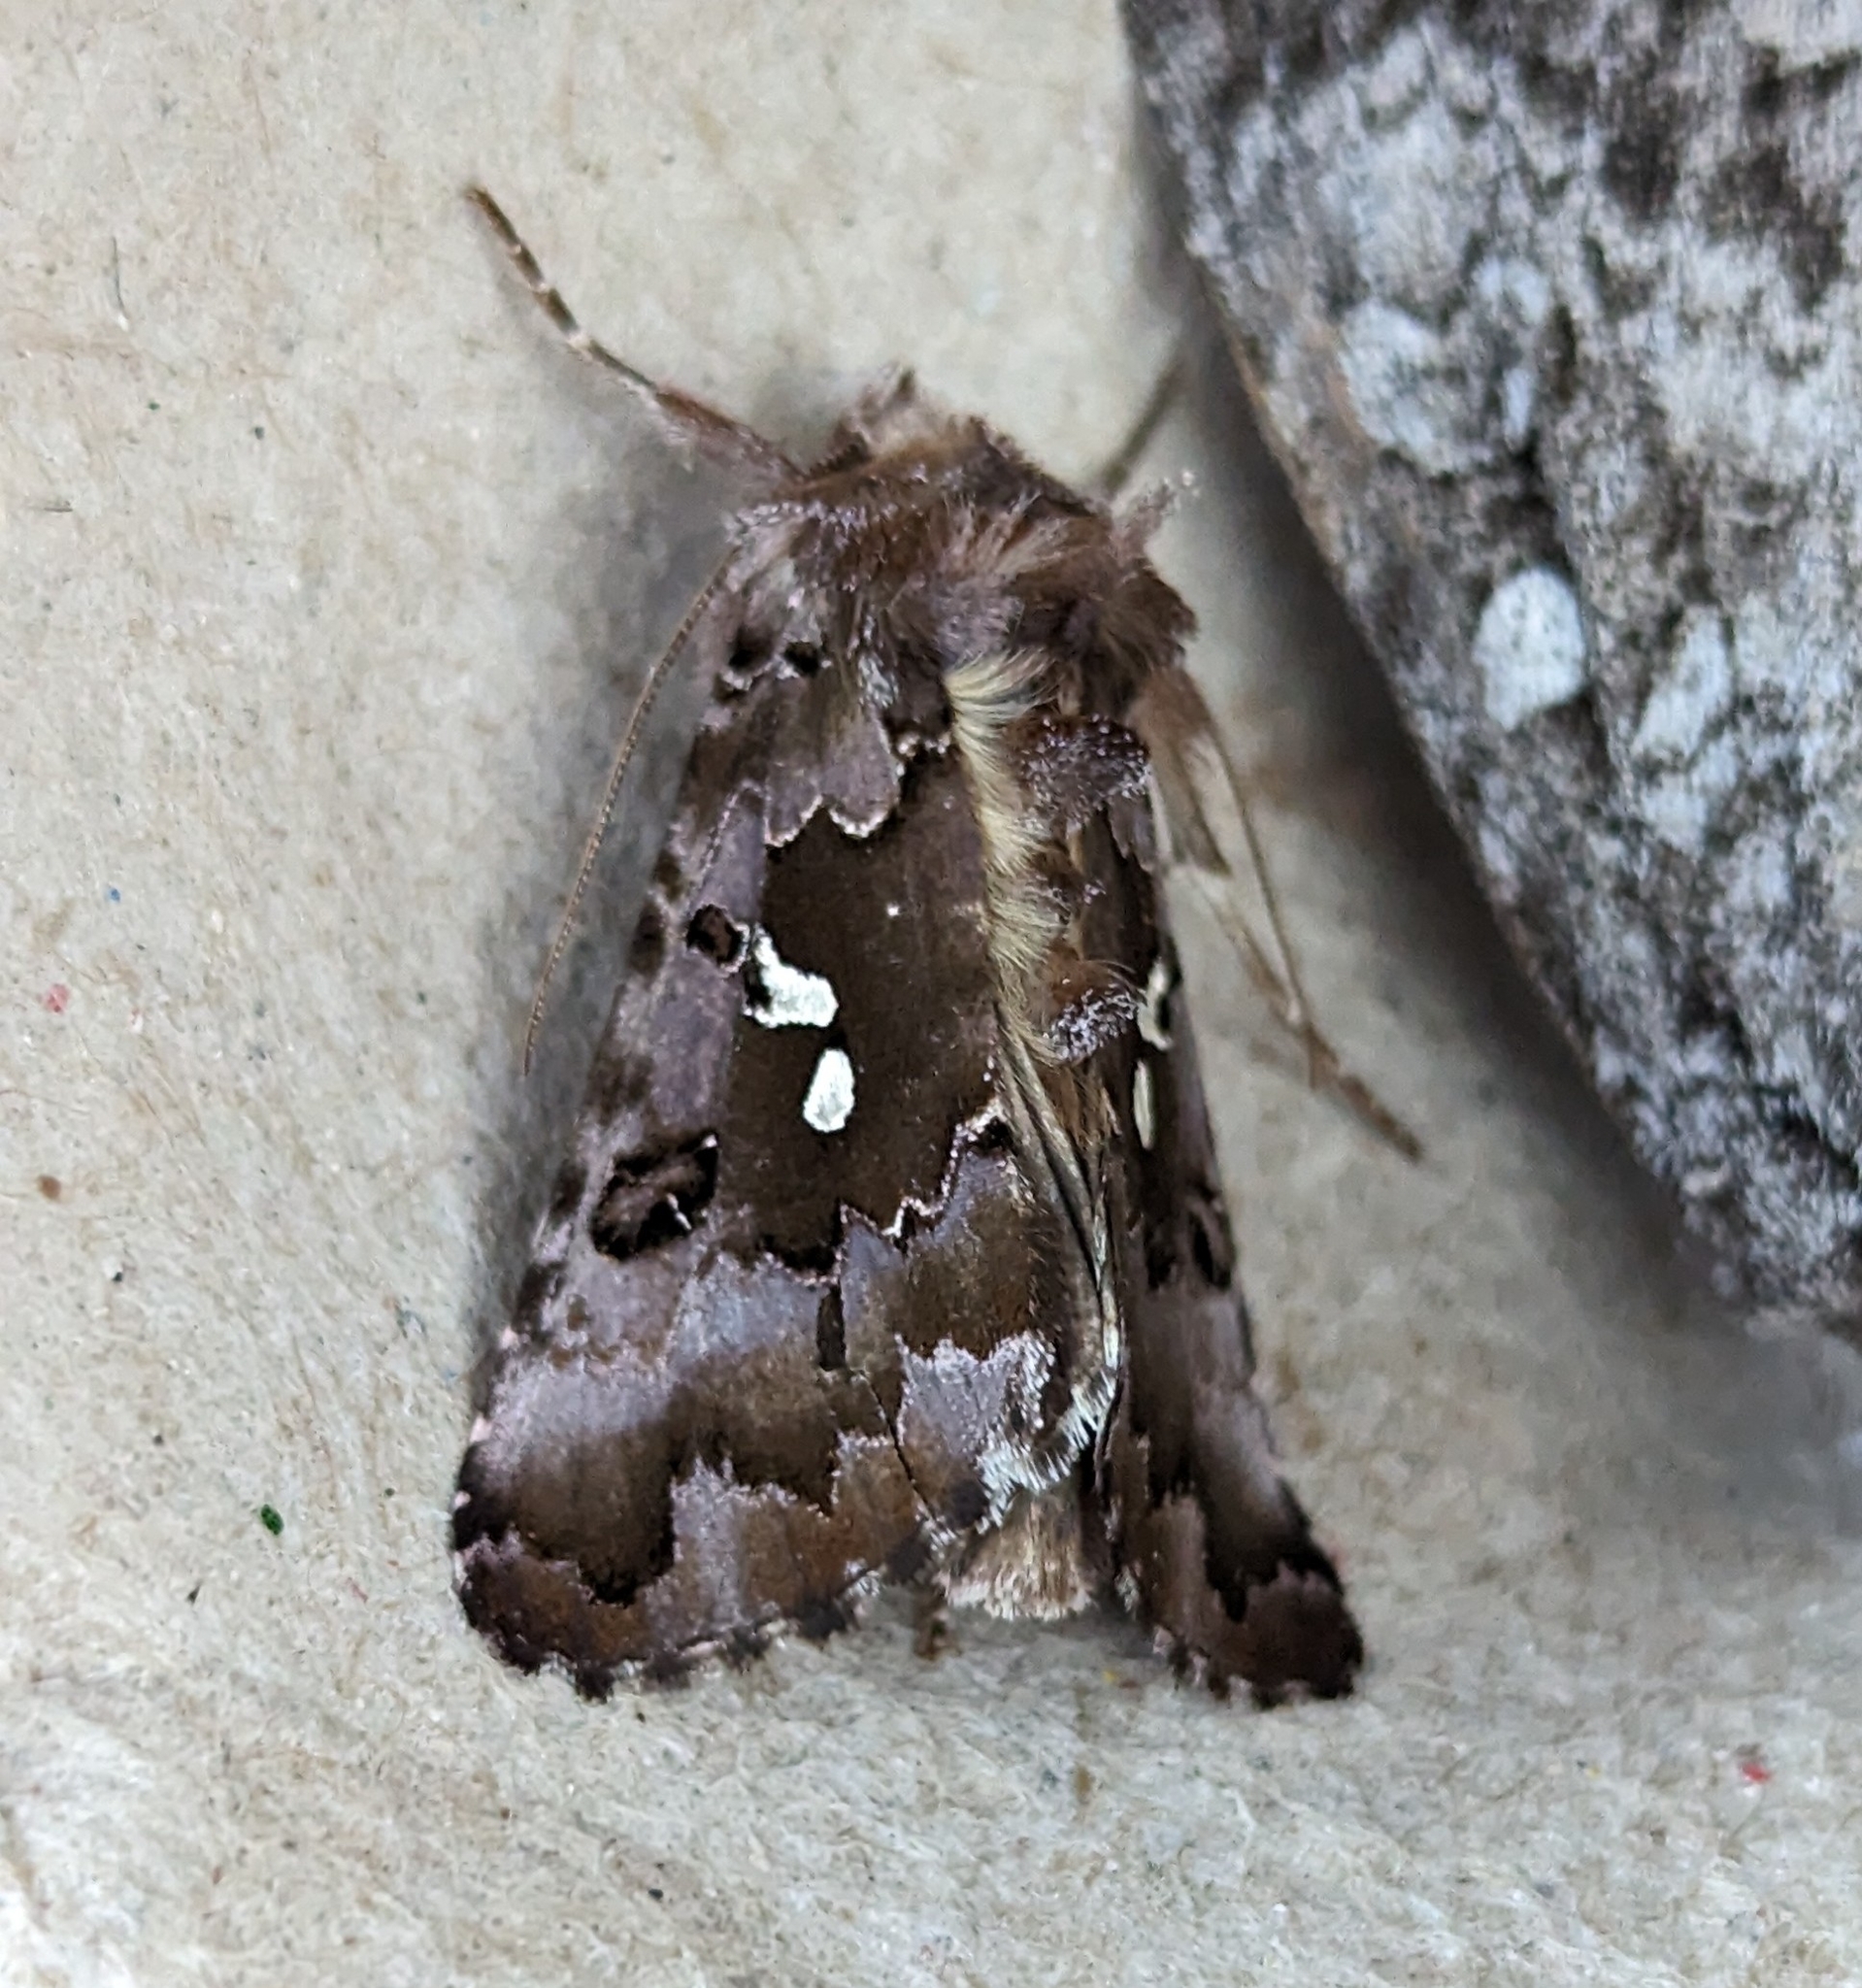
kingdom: Animalia
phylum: Arthropoda
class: Insecta
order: Lepidoptera
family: Noctuidae
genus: Autographa
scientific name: Autographa corusca
